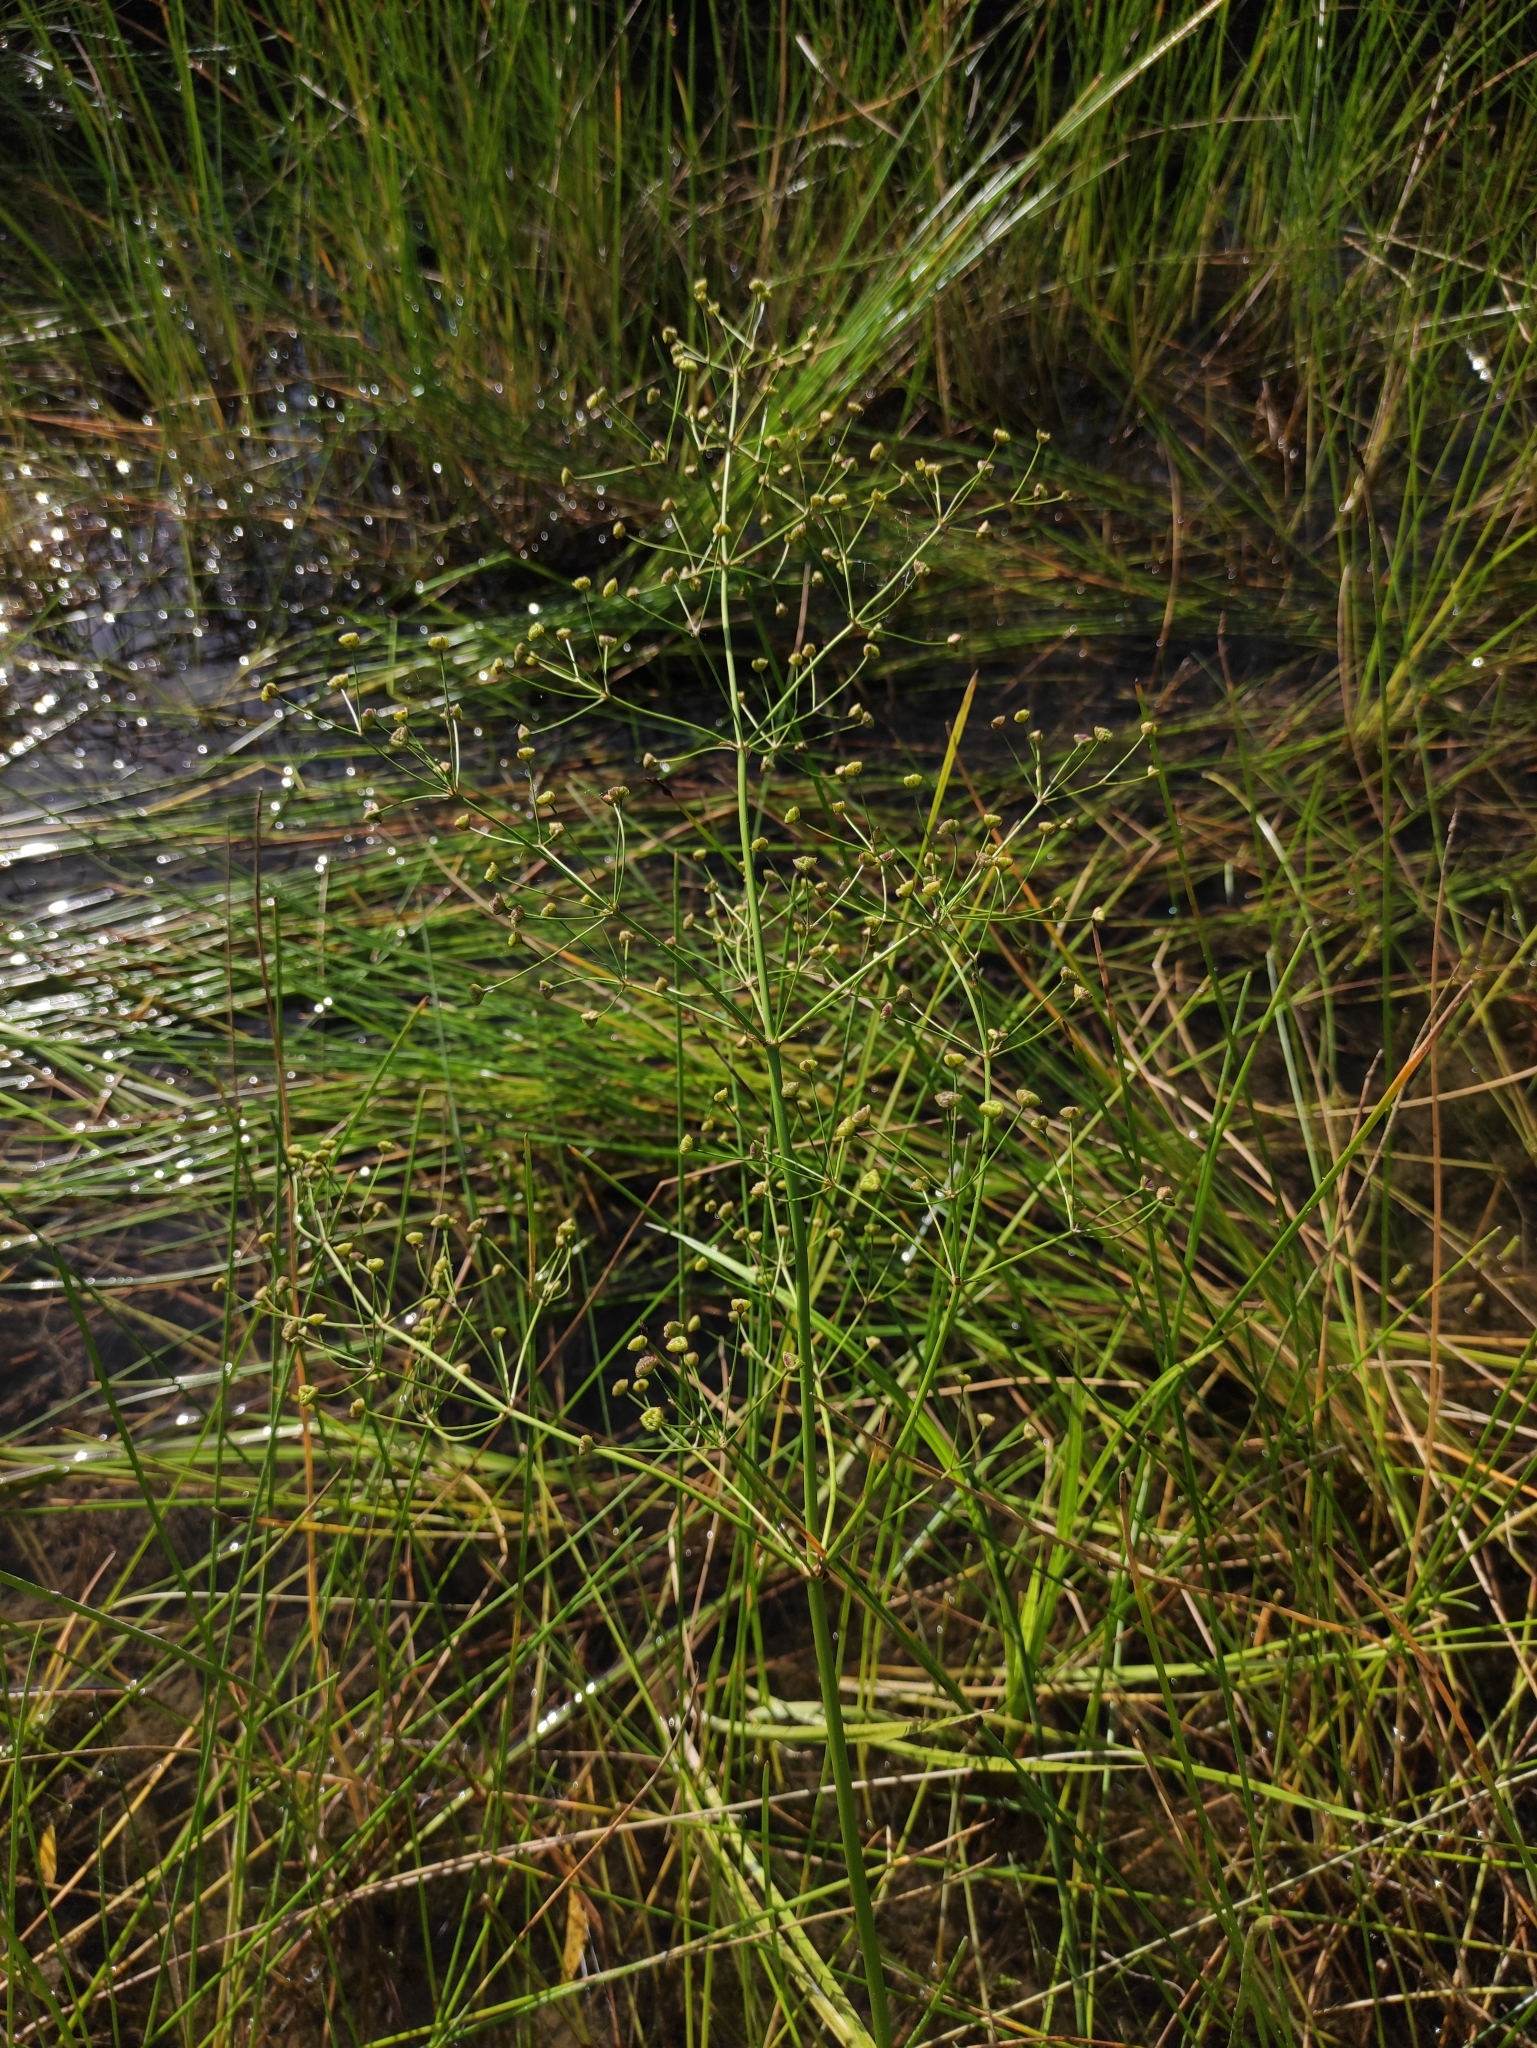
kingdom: Plantae
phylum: Tracheophyta
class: Liliopsida
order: Alismatales
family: Alismataceae
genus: Alisma
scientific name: Alisma plantago-aquatica
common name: Water-plantain
